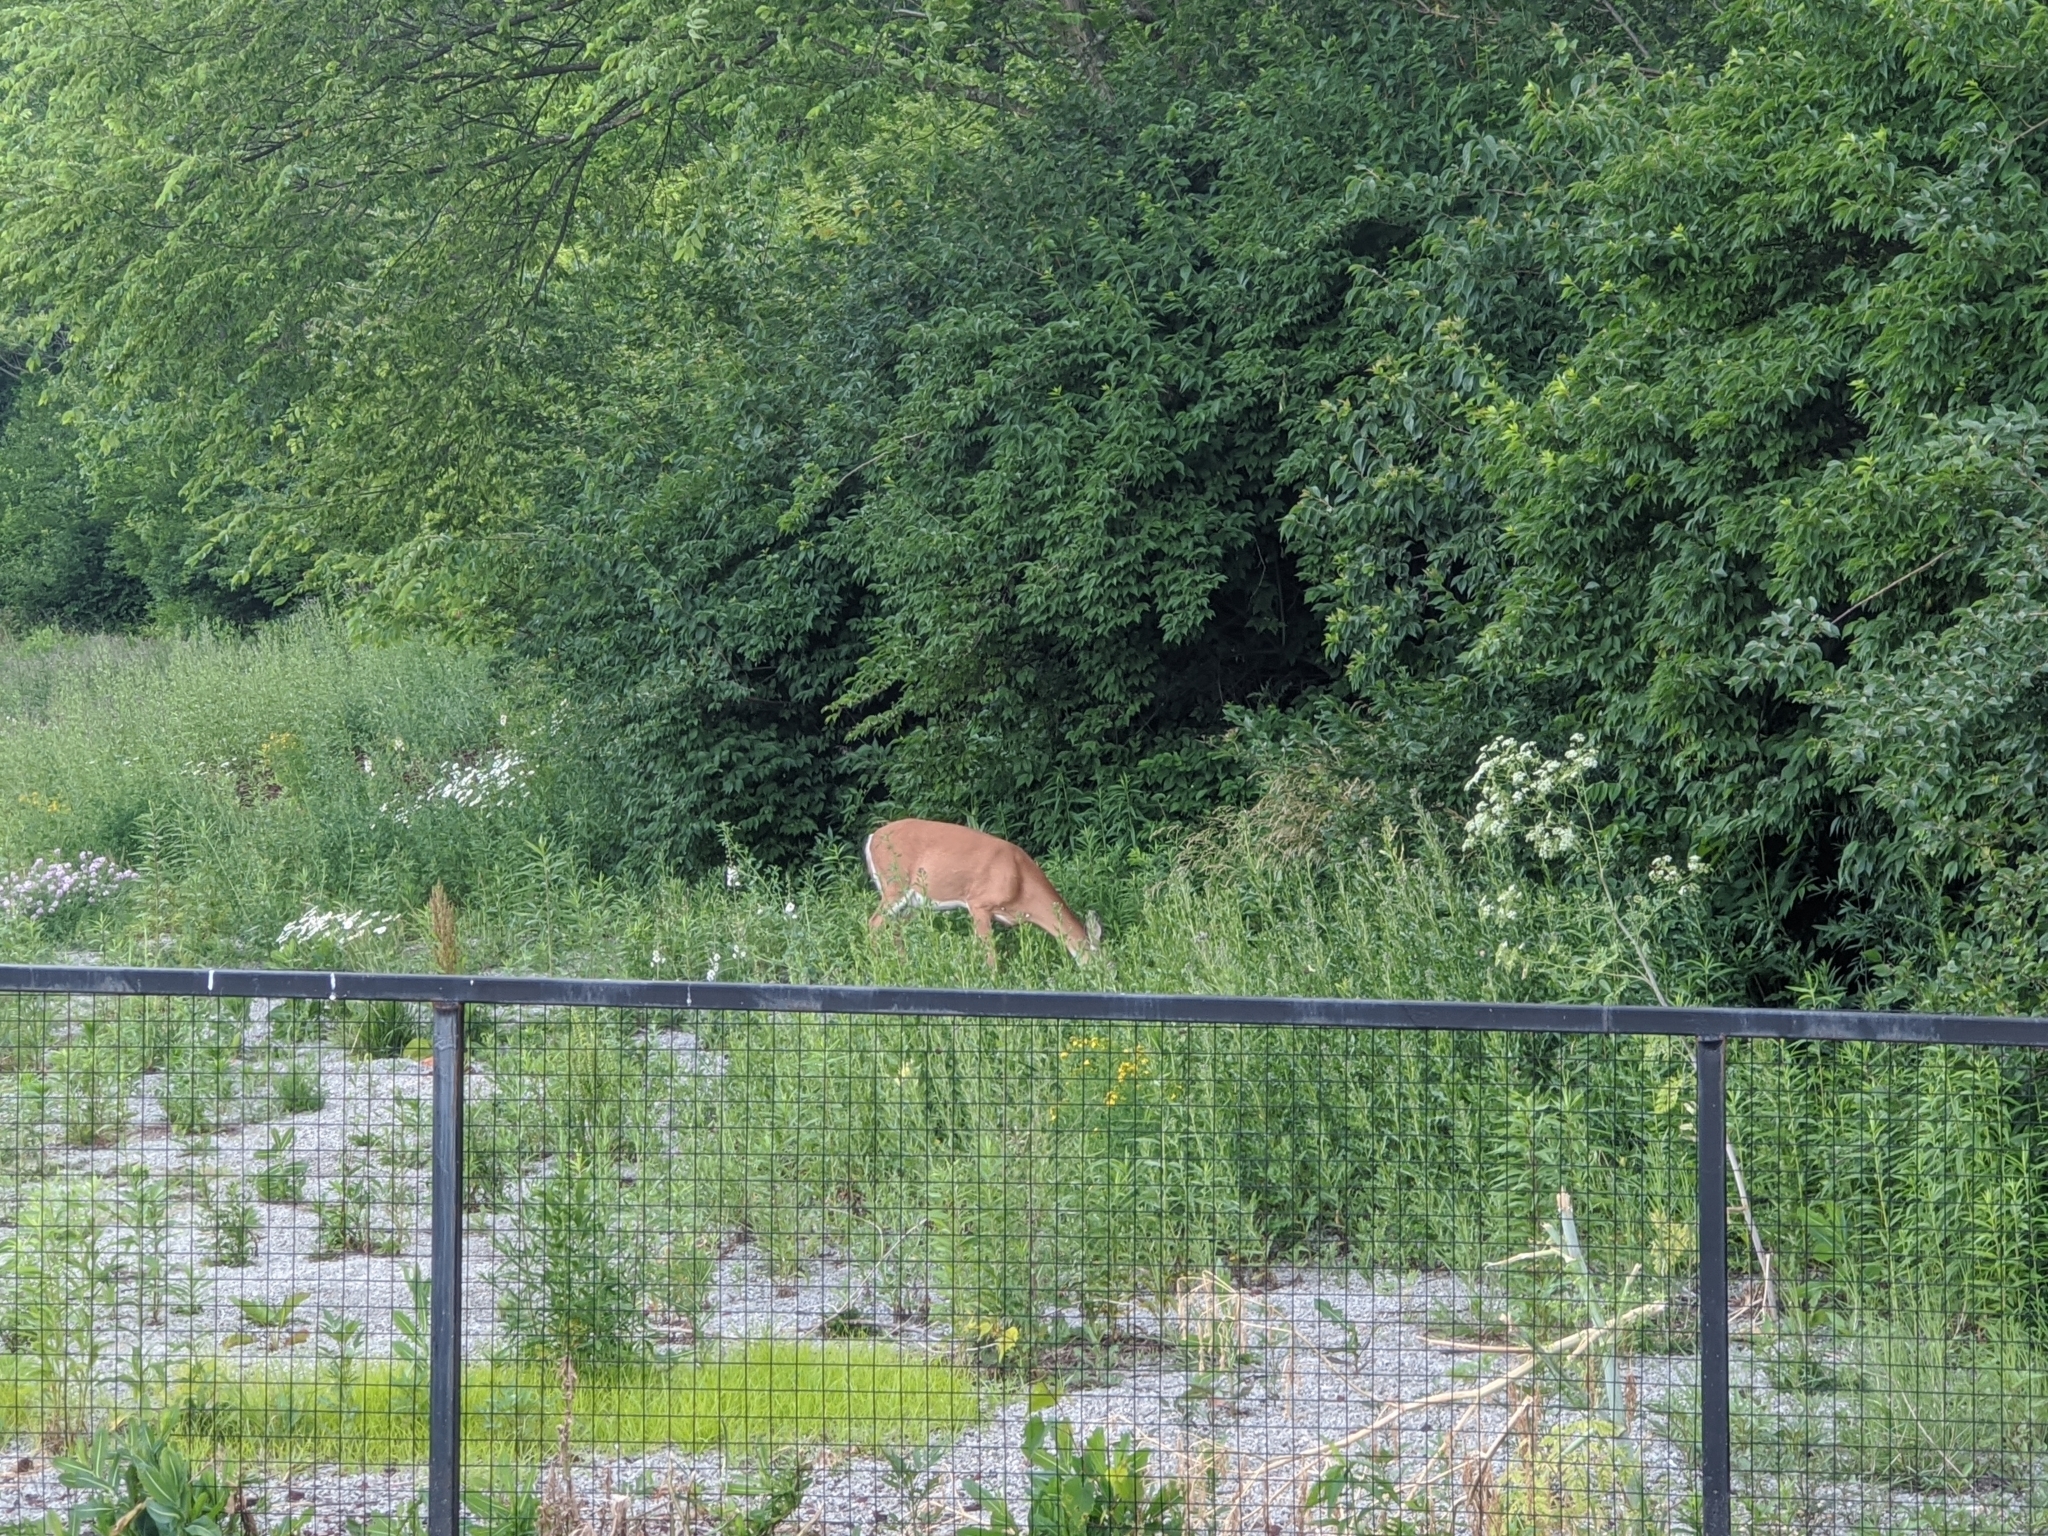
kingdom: Animalia
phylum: Chordata
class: Mammalia
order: Artiodactyla
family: Cervidae
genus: Odocoileus
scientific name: Odocoileus virginianus
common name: White-tailed deer
